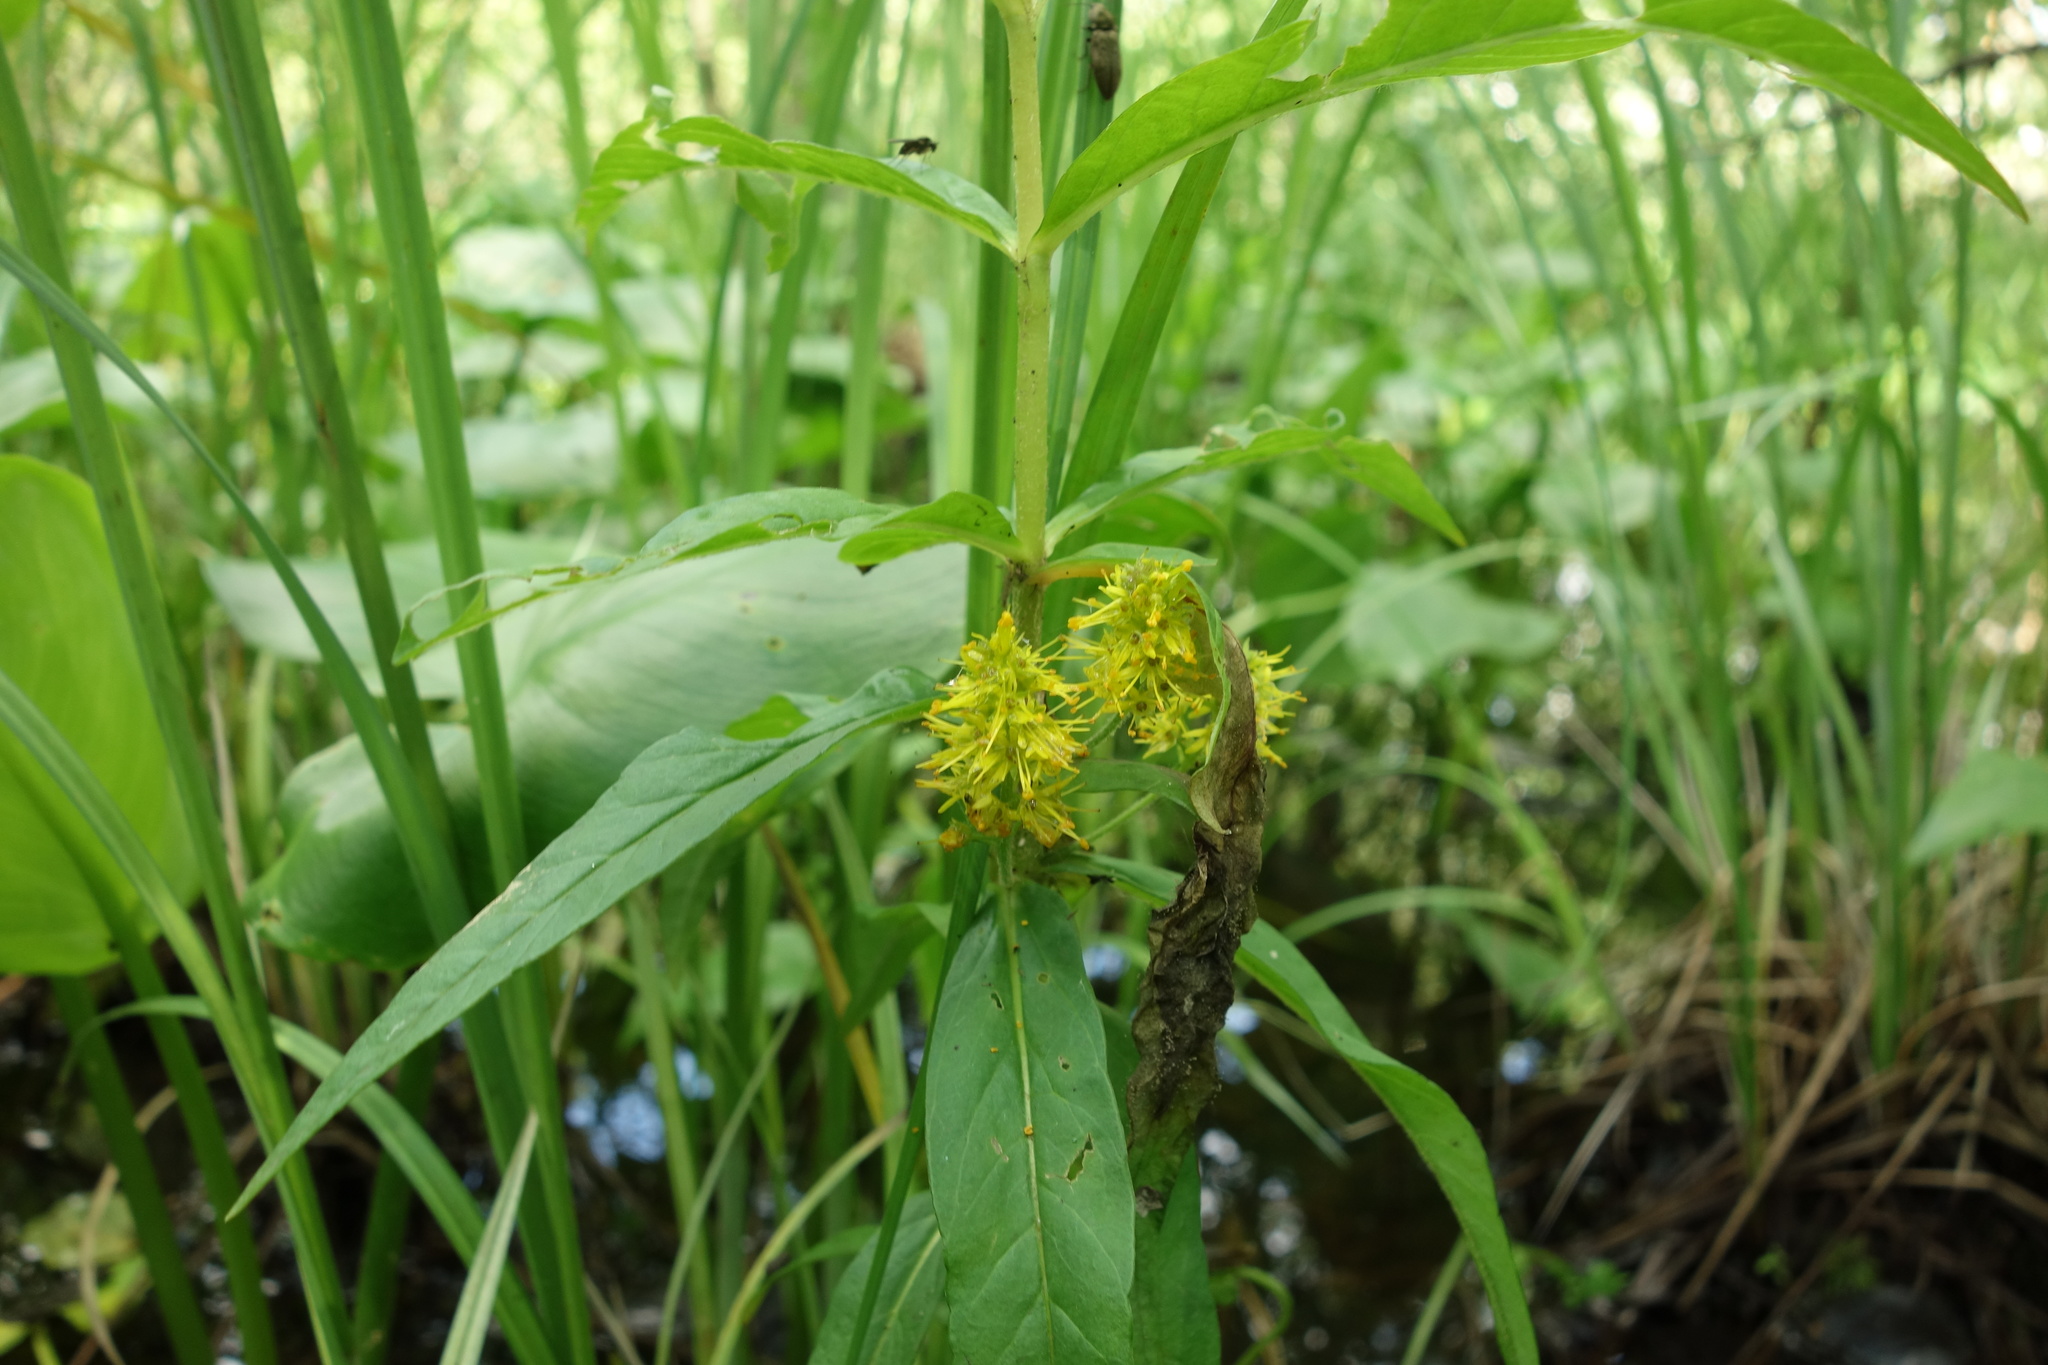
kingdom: Plantae
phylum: Tracheophyta
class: Magnoliopsida
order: Ericales
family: Primulaceae
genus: Lysimachia
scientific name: Lysimachia thyrsiflora
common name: Tufted loosestrife
